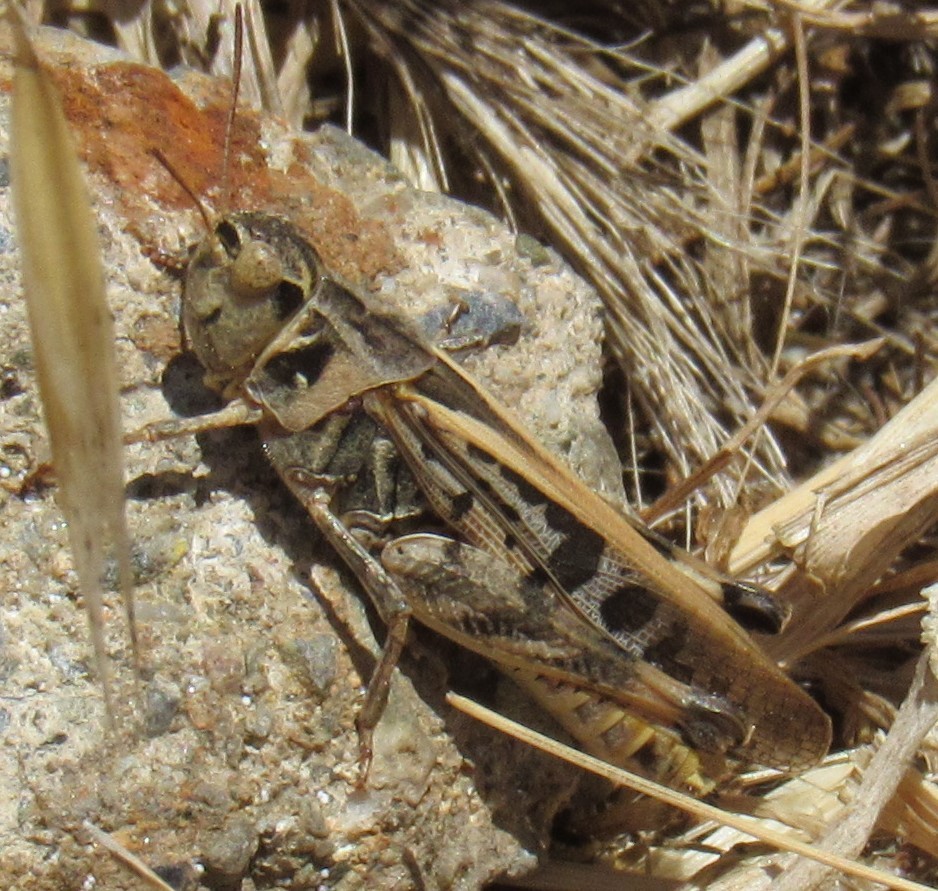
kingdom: Animalia
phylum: Arthropoda
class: Insecta
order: Orthoptera
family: Acrididae
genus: Camnula
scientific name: Camnula pellucida
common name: Clear-winged grasshopper
